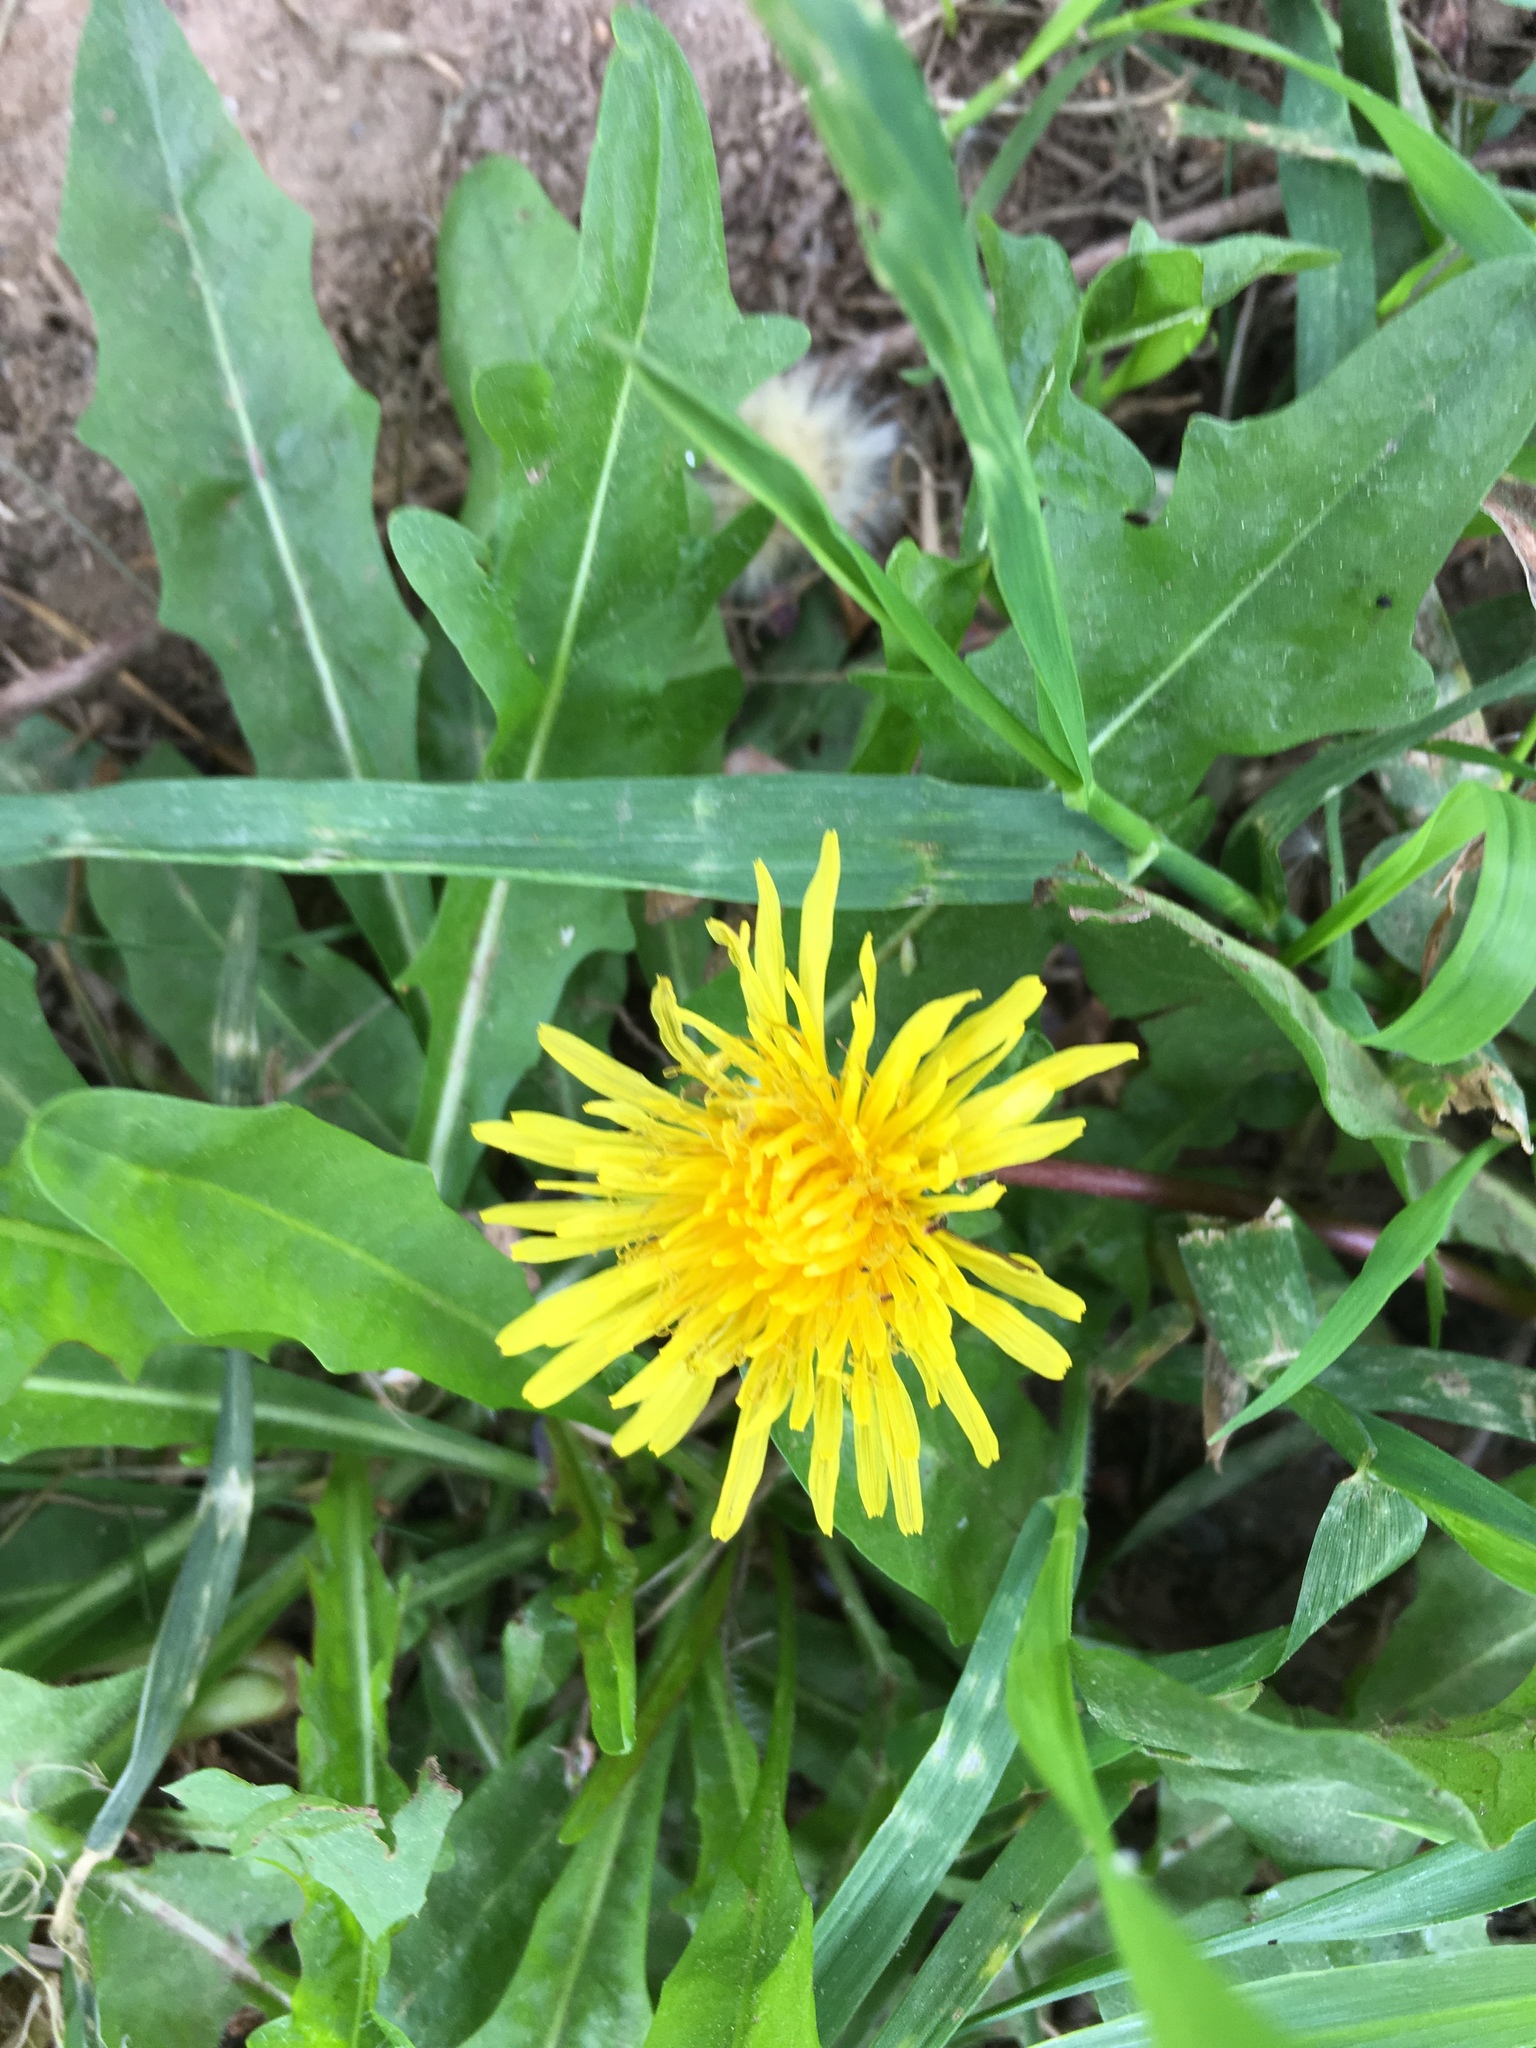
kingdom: Plantae
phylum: Tracheophyta
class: Magnoliopsida
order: Asterales
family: Asteraceae
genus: Taraxacum
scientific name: Taraxacum officinale
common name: Common dandelion
